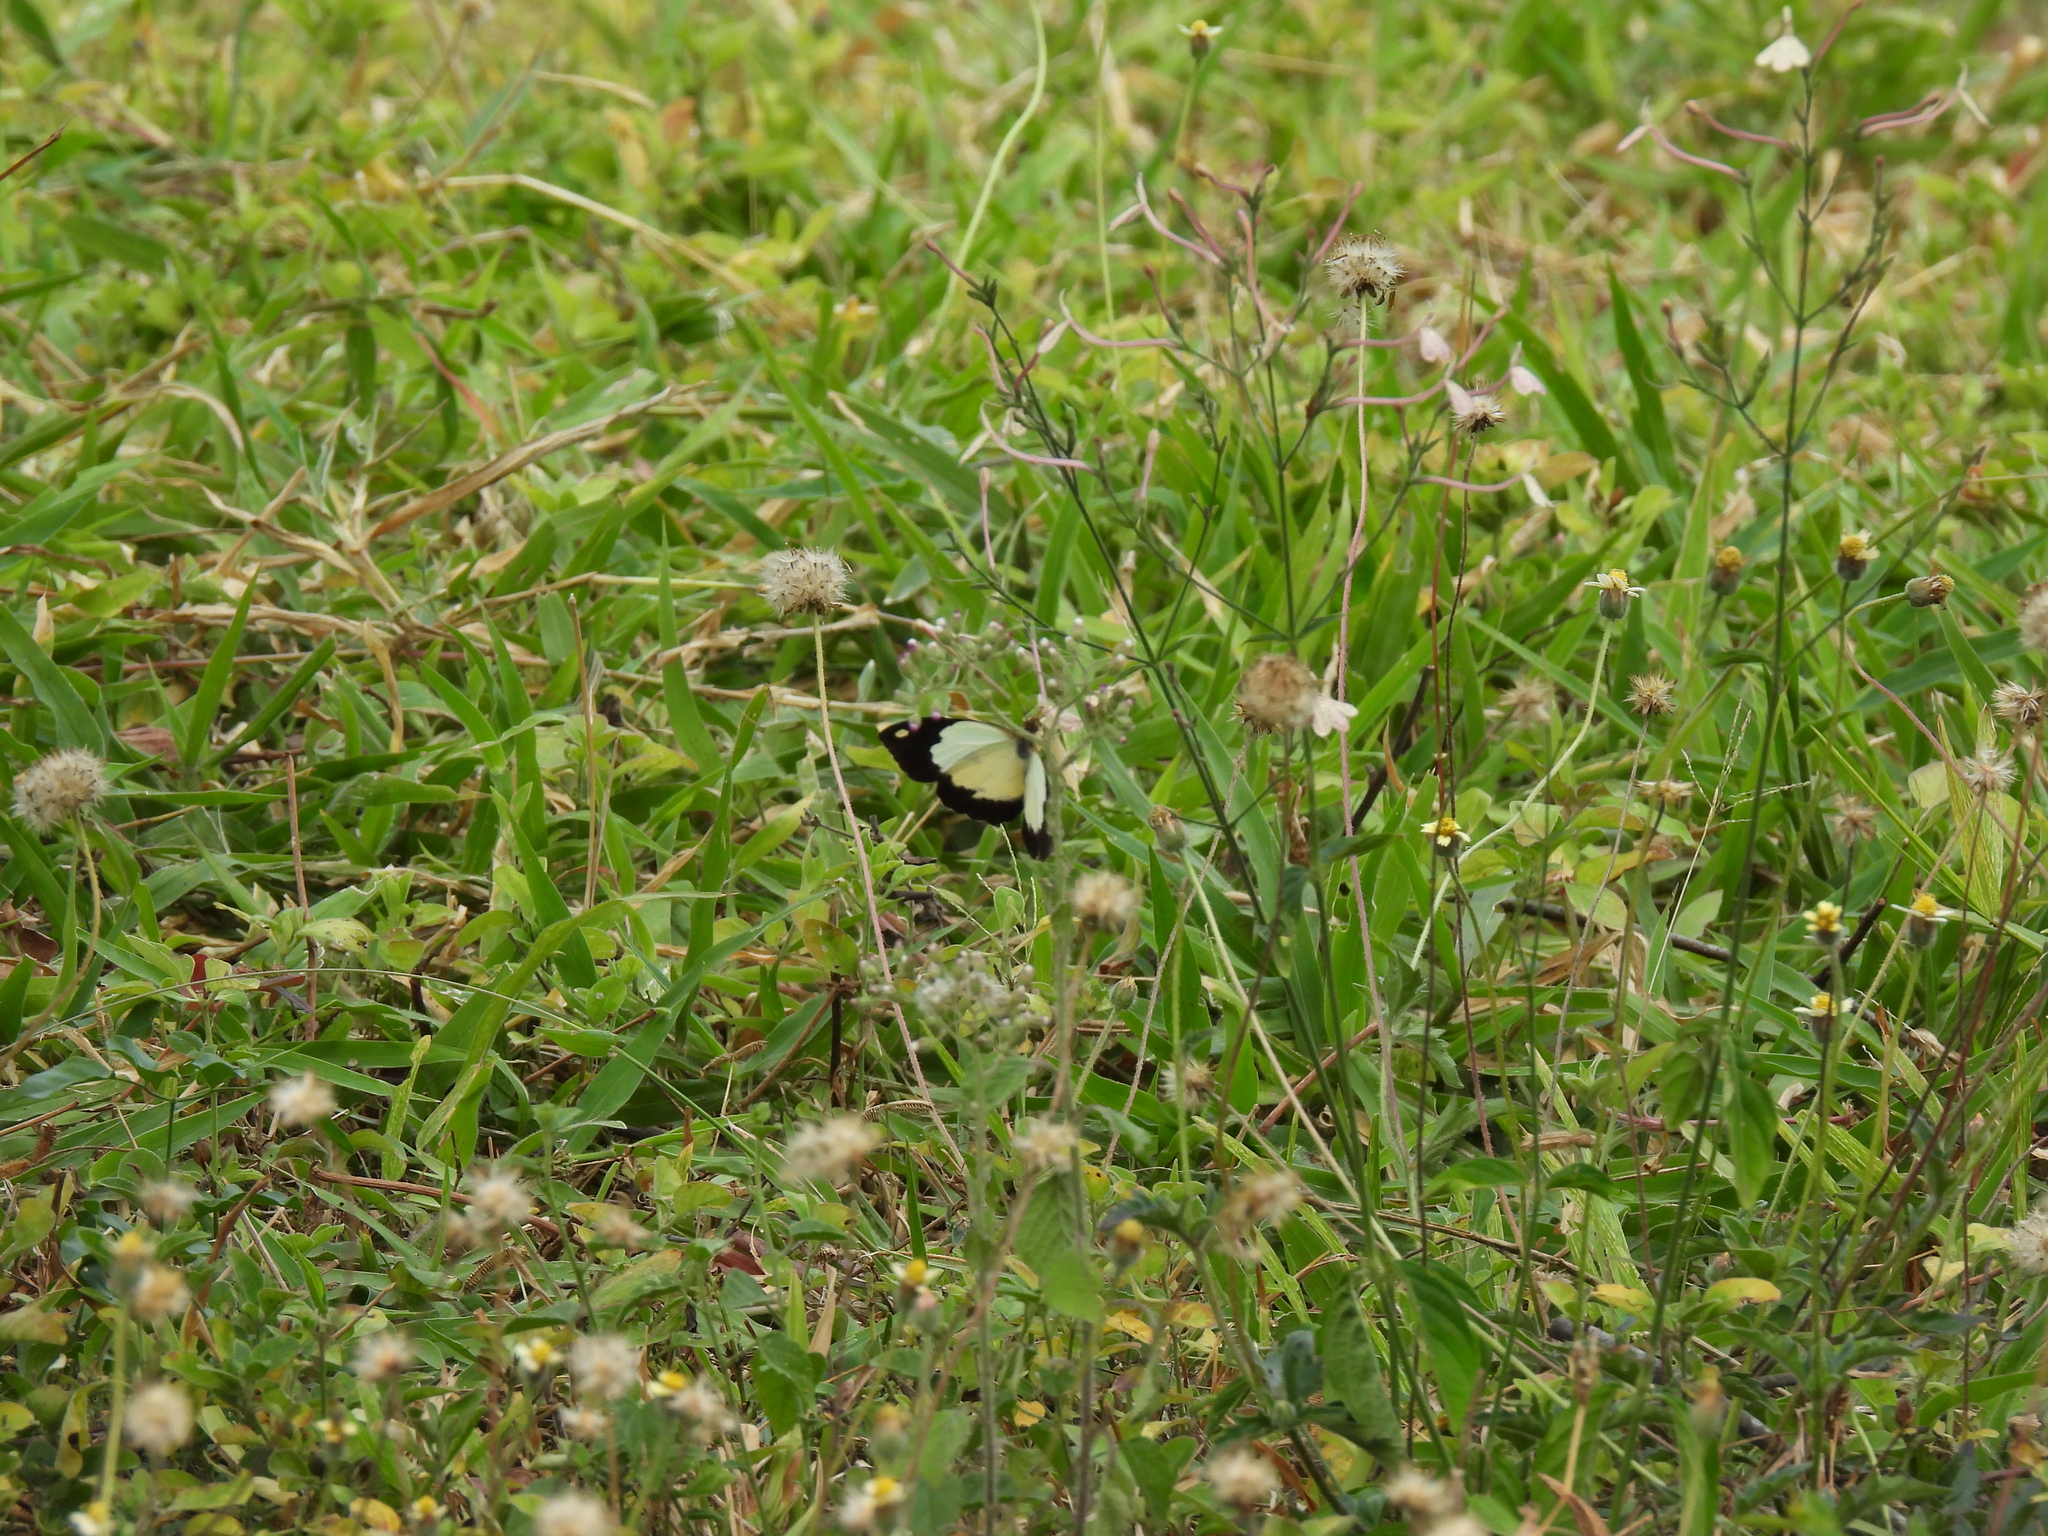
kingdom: Animalia
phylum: Arthropoda
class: Insecta
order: Lepidoptera
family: Pieridae
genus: Eronia
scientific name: Eronia cleodora
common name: Vine-leaf vagrant
